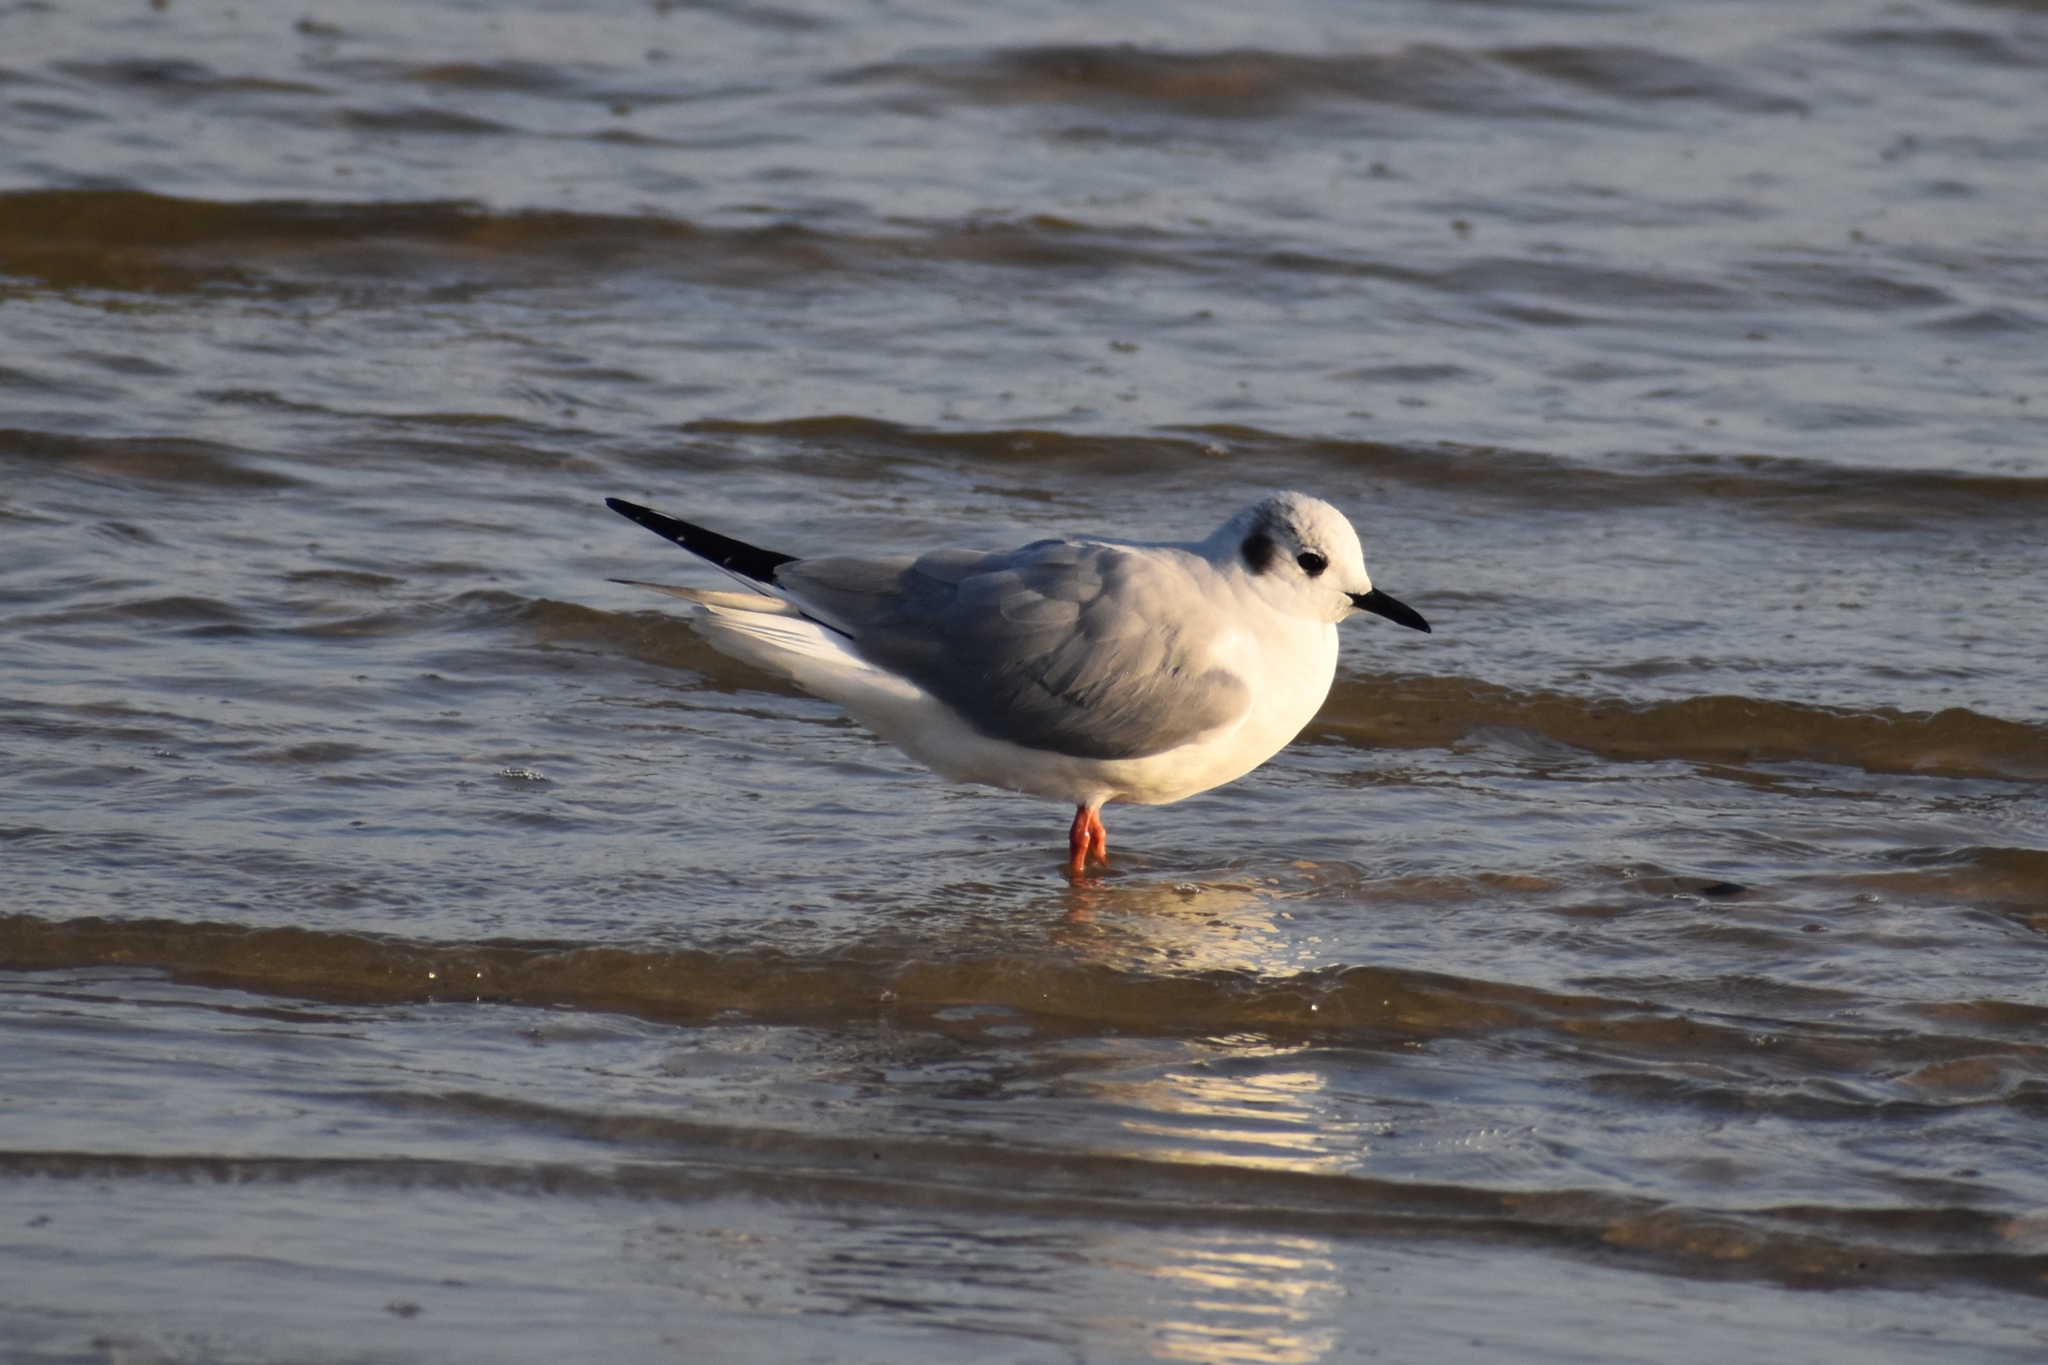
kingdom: Animalia
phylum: Chordata
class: Aves
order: Charadriiformes
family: Laridae
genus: Chroicocephalus
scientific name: Chroicocephalus philadelphia
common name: Bonaparte's gull
